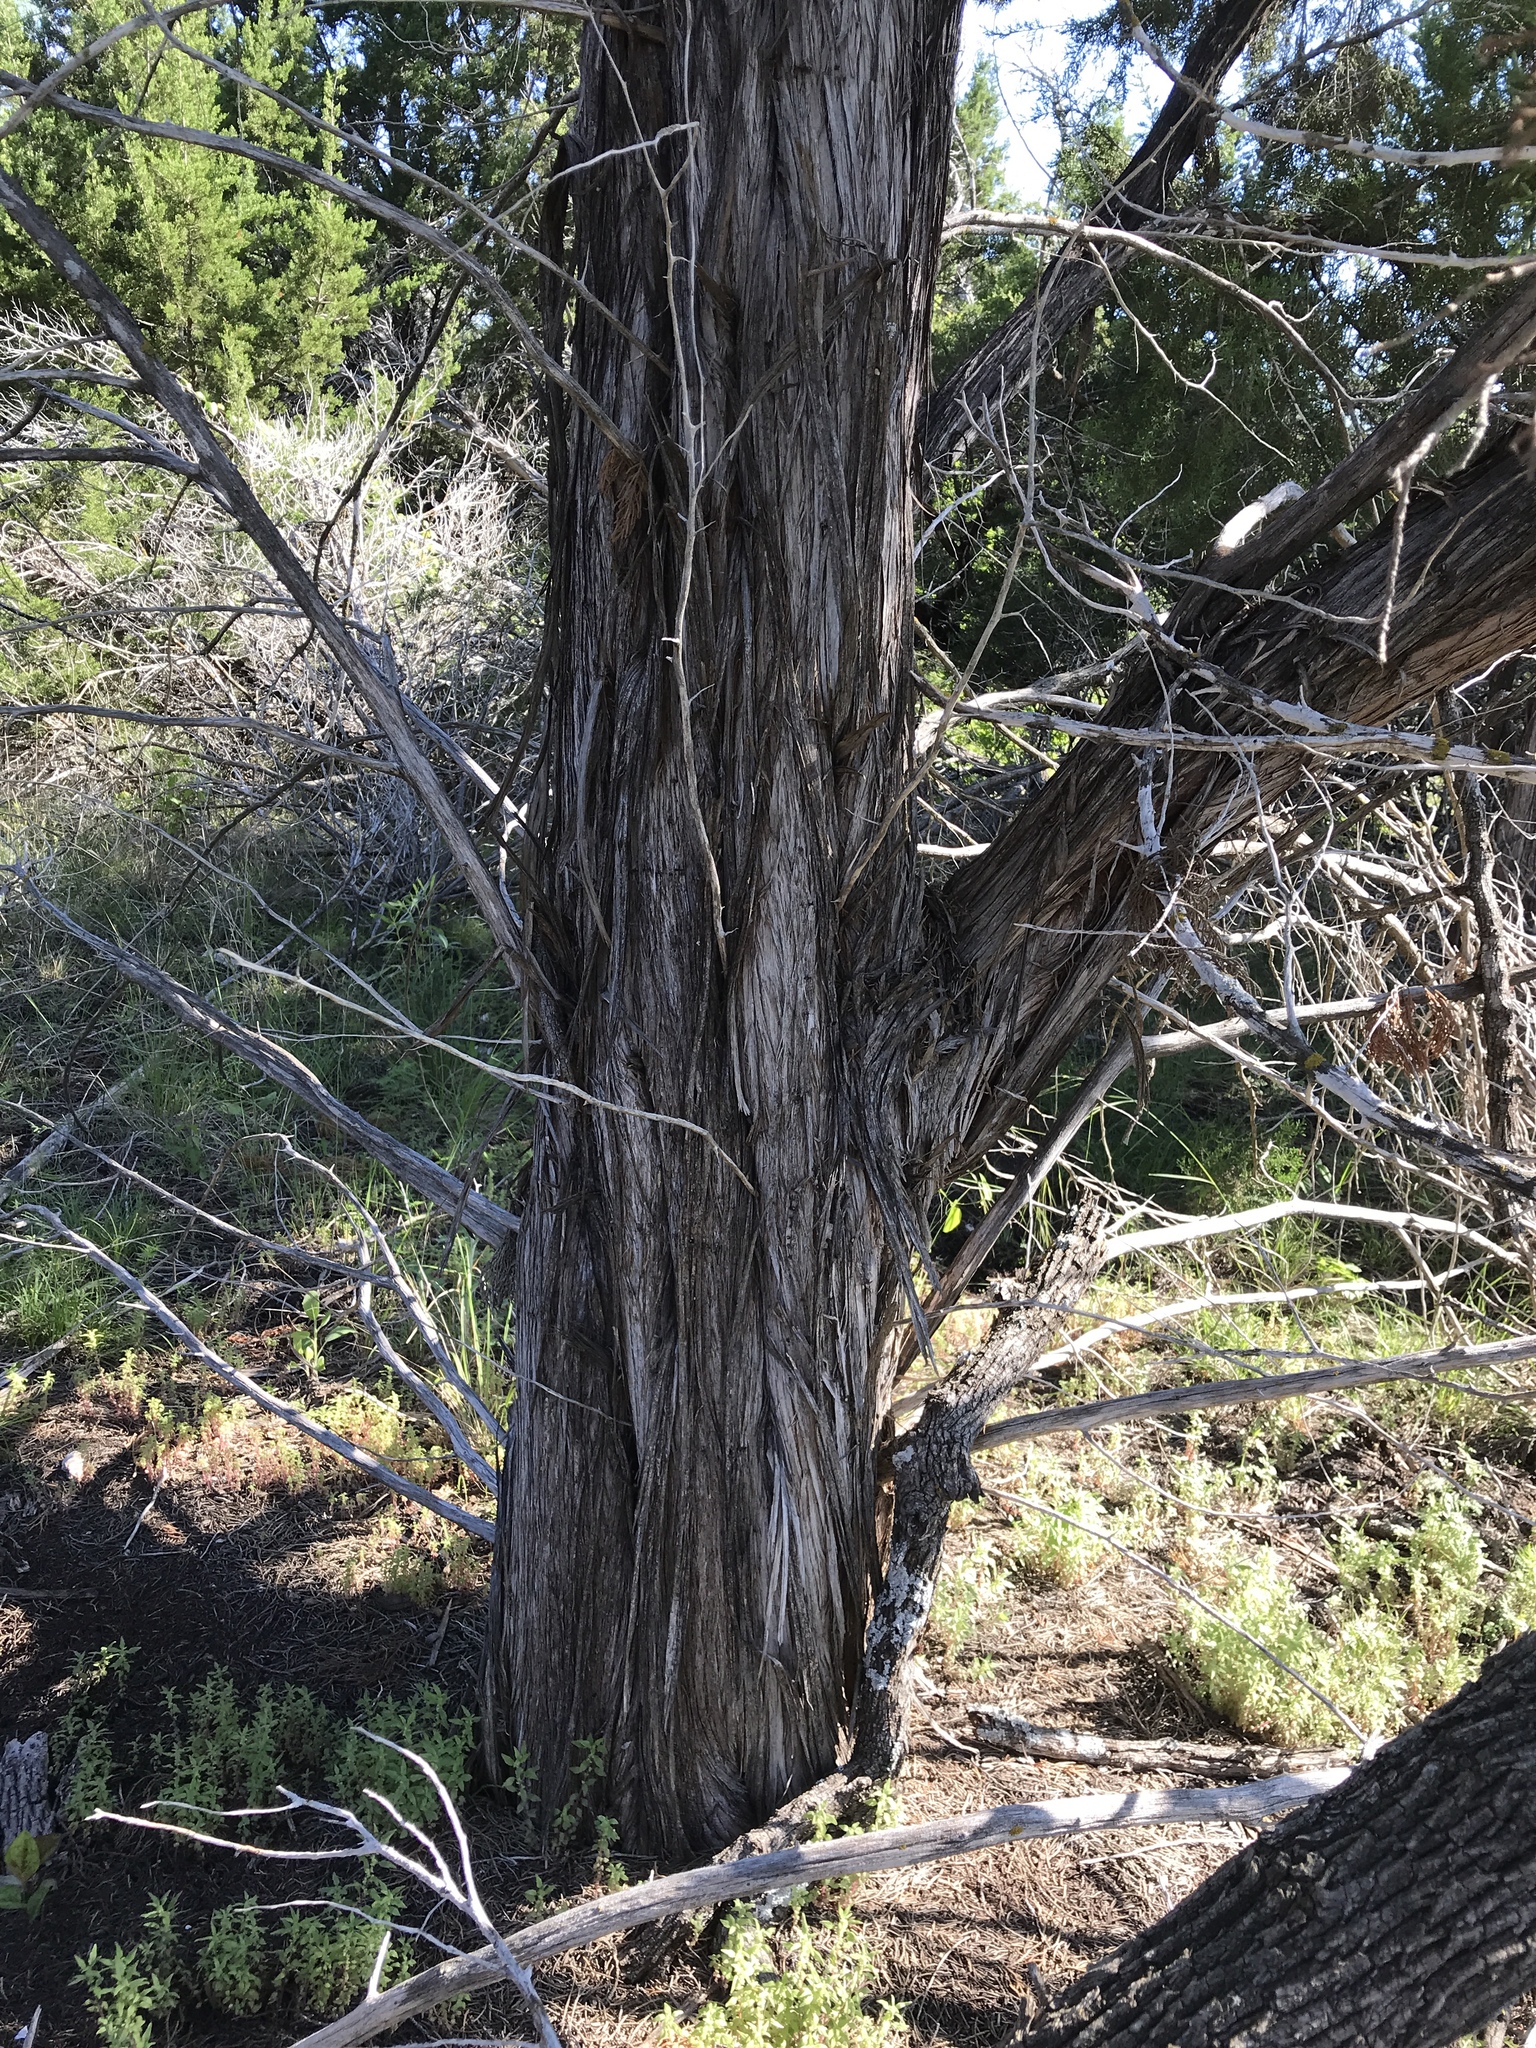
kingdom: Plantae
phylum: Tracheophyta
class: Pinopsida
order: Pinales
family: Cupressaceae
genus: Juniperus
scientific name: Juniperus ashei
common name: Mexican juniper
